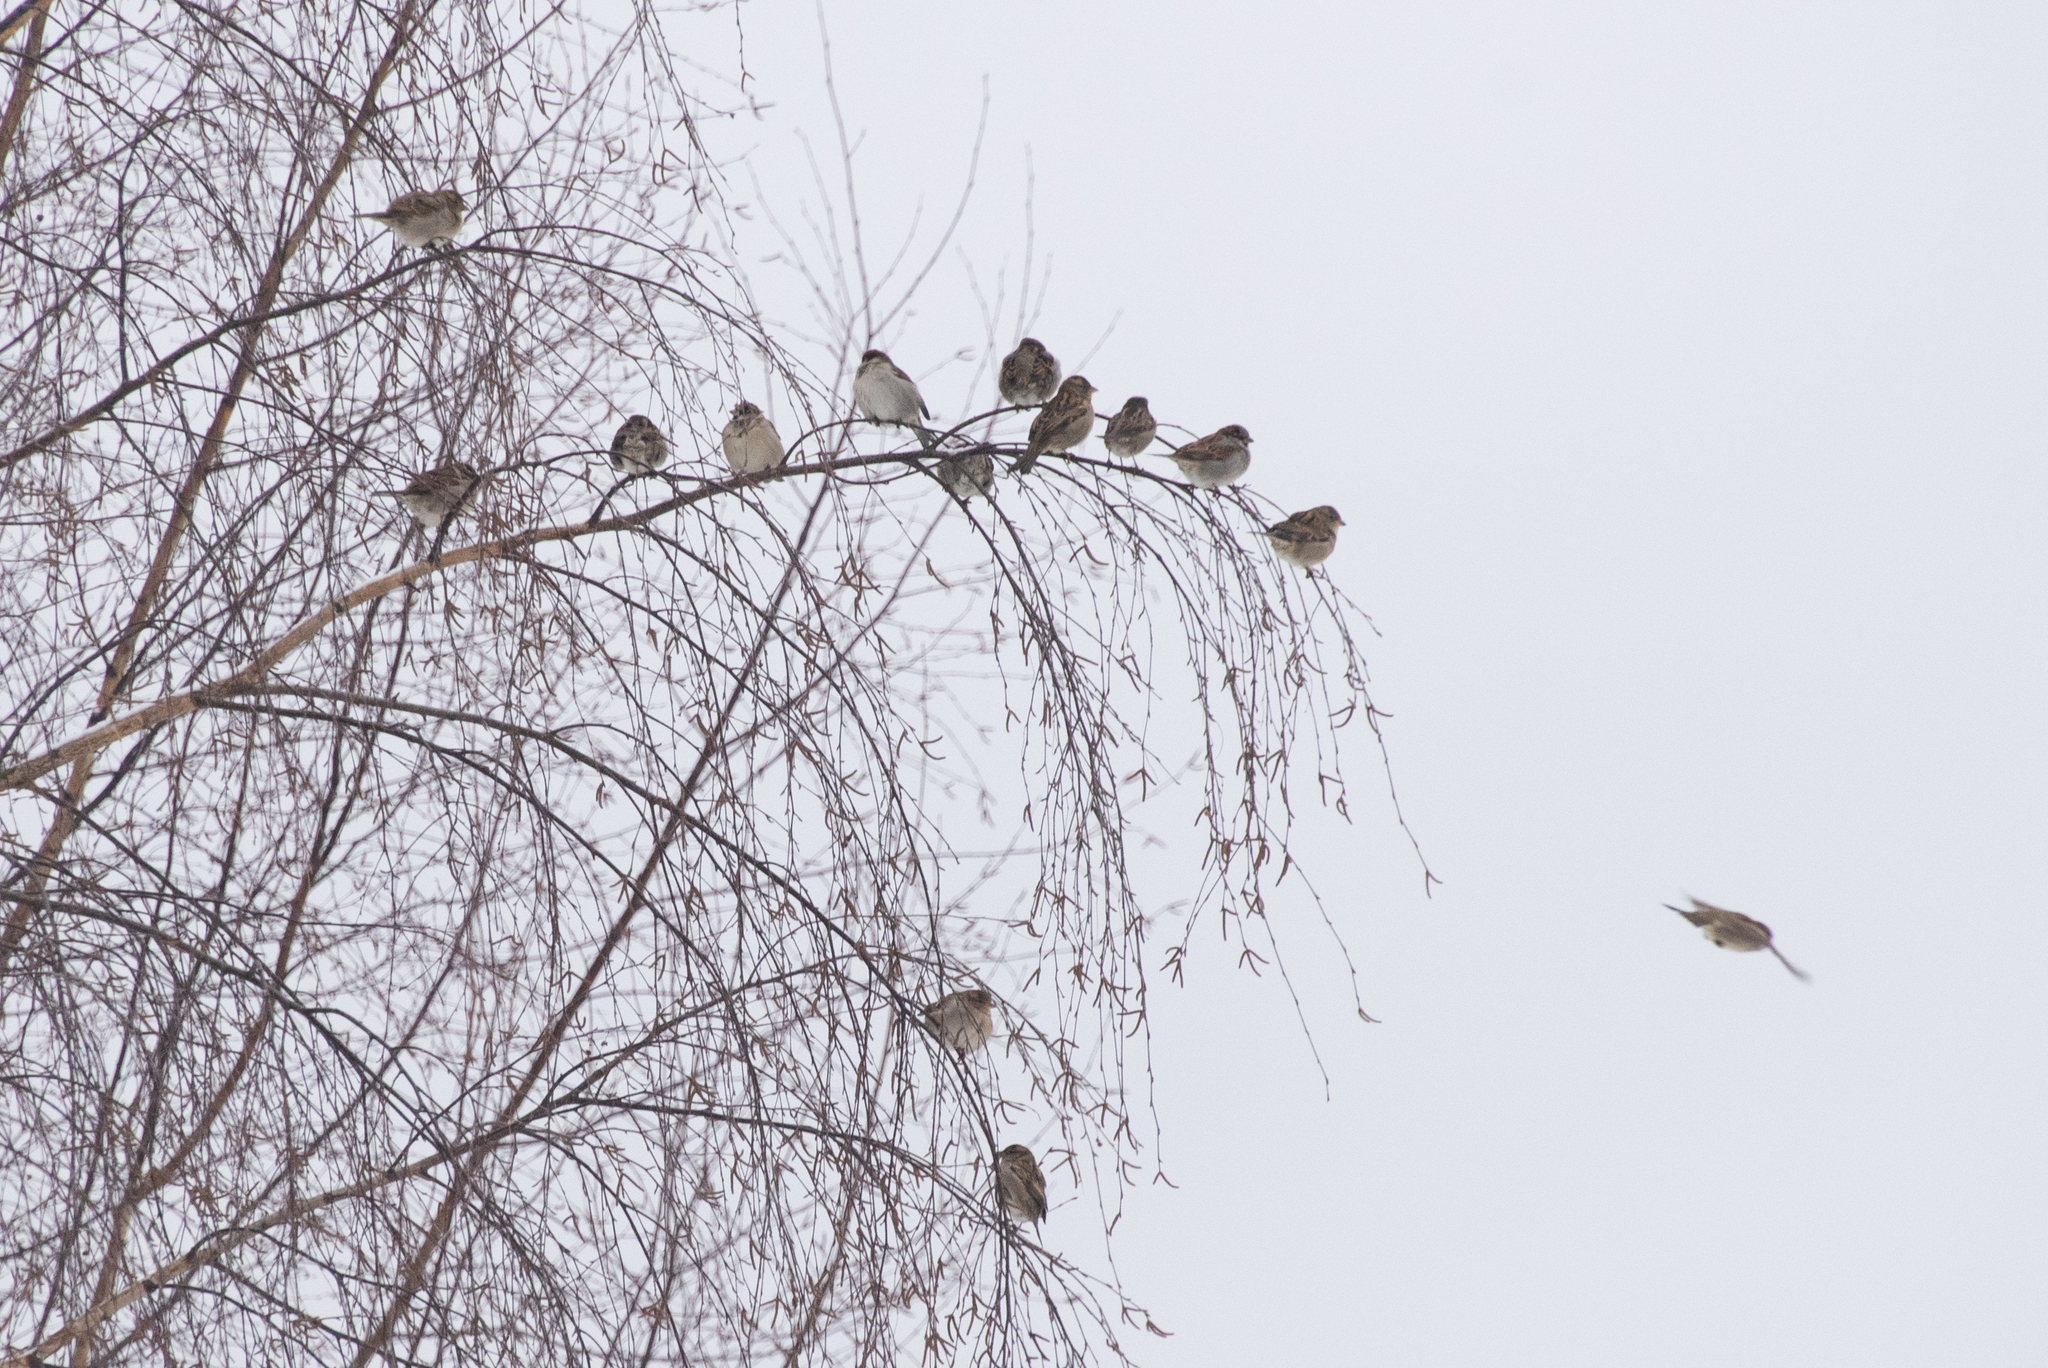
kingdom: Animalia
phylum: Chordata
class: Aves
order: Passeriformes
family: Passeridae
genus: Passer
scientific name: Passer domesticus
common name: House sparrow
